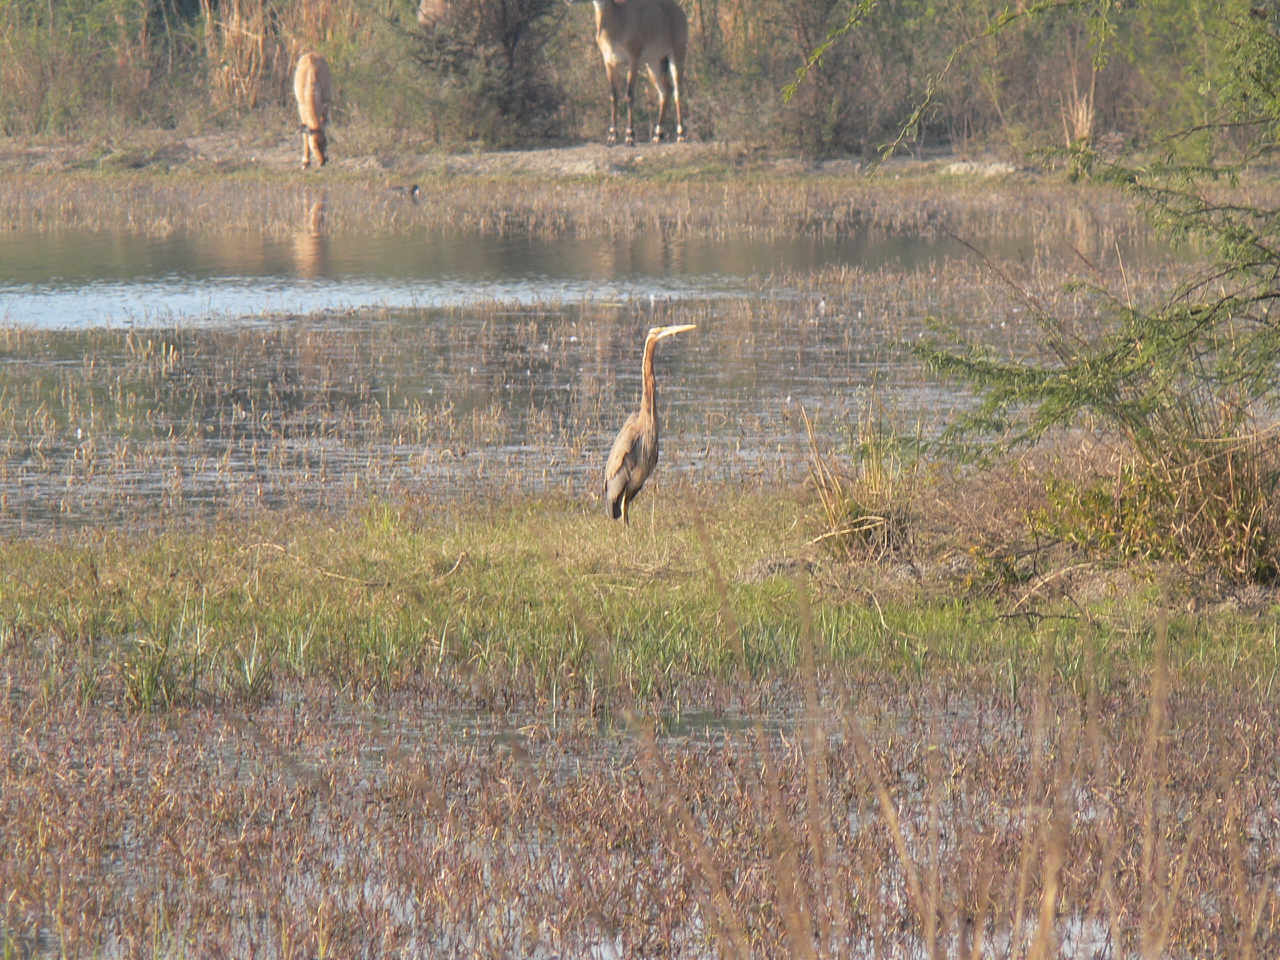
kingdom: Animalia
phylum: Chordata
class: Aves
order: Pelecaniformes
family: Ardeidae
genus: Ardea
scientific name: Ardea purpurea
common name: Purple heron
